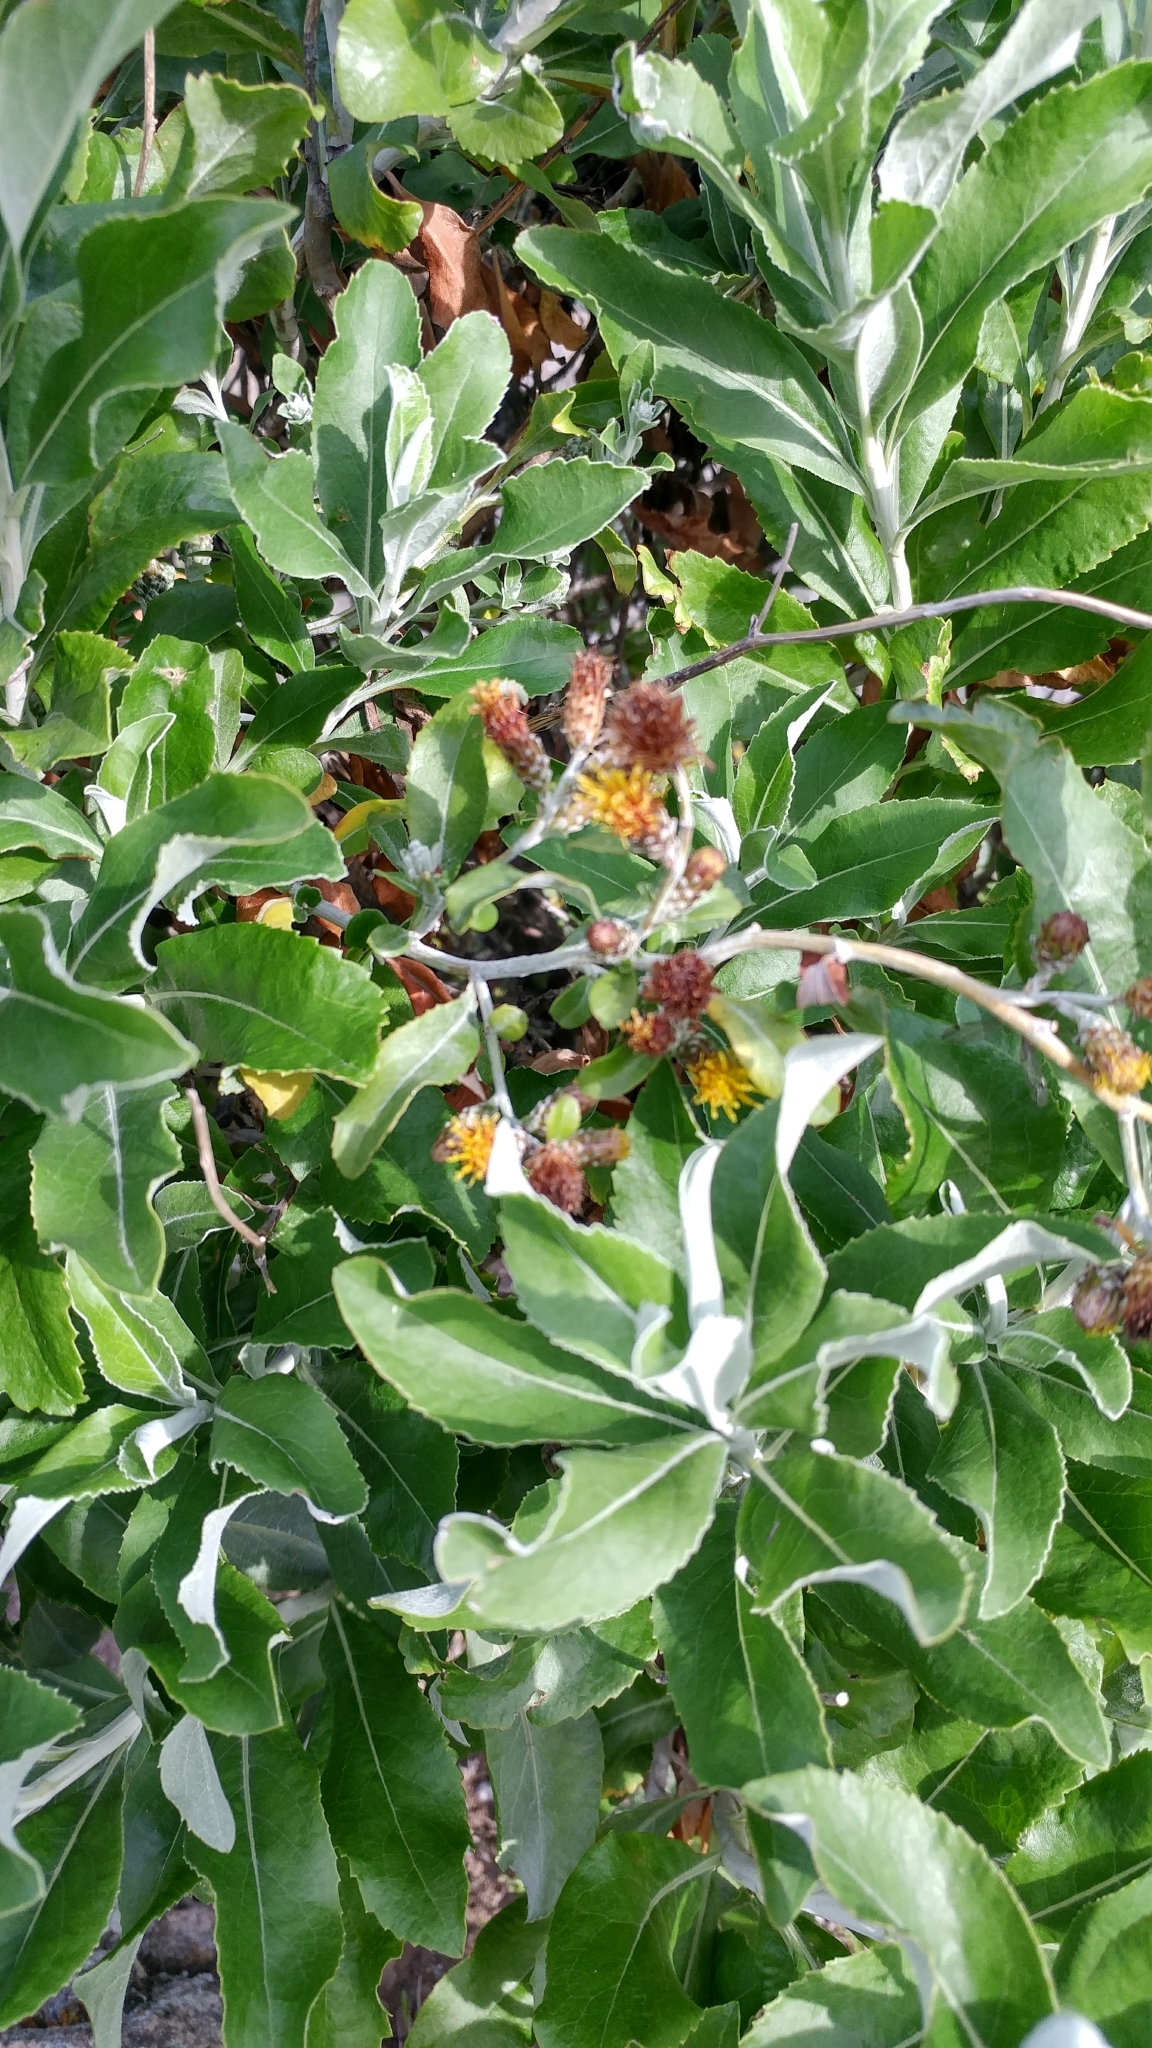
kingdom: Plantae
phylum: Tracheophyta
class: Magnoliopsida
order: Asterales
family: Asteraceae
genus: Hazardia
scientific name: Hazardia cana
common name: San clemente island bristleweed
